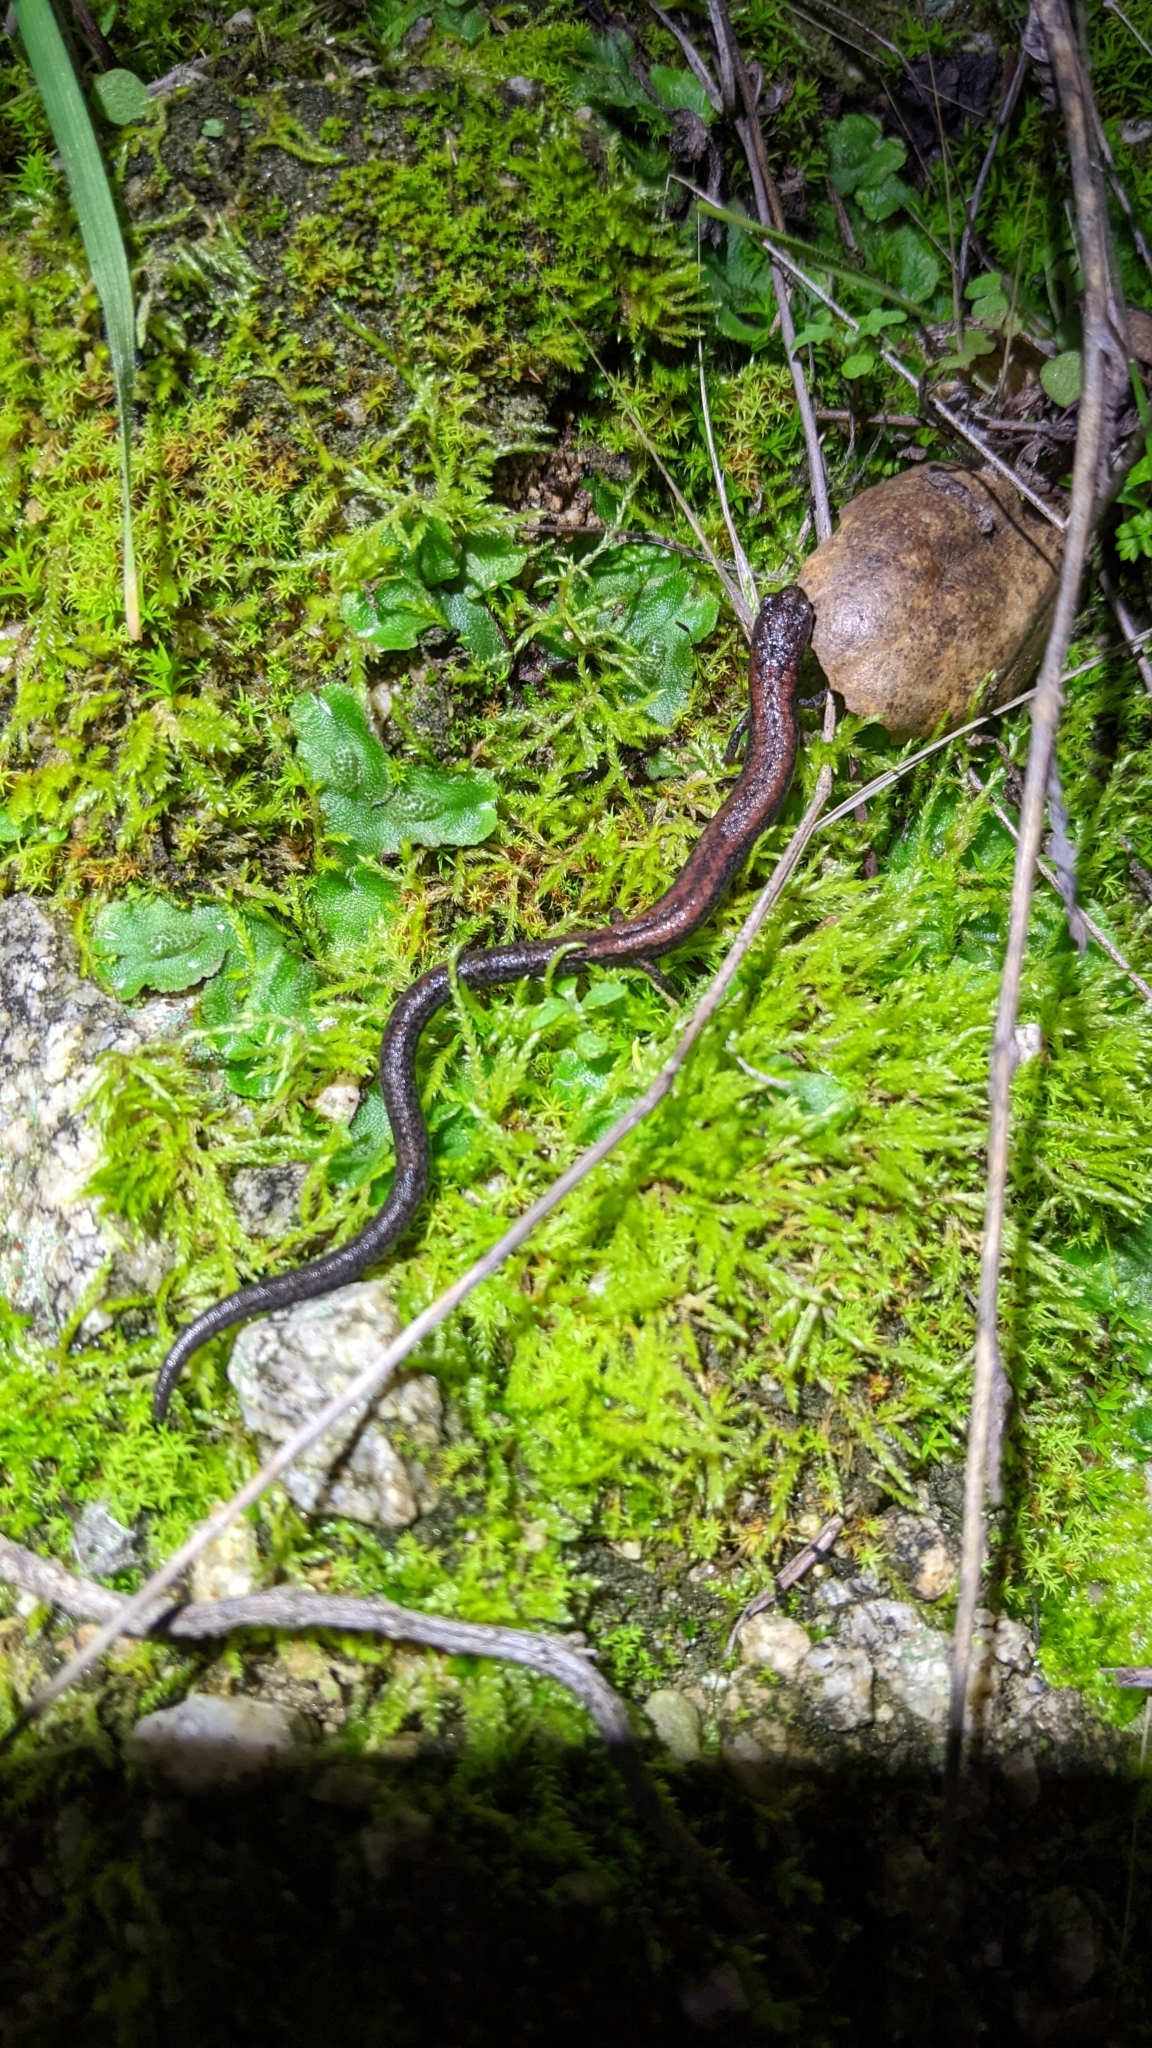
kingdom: Animalia
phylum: Chordata
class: Amphibia
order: Caudata
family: Plethodontidae
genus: Batrachoseps
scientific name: Batrachoseps nigriventris
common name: Black-bellied slender salamander
